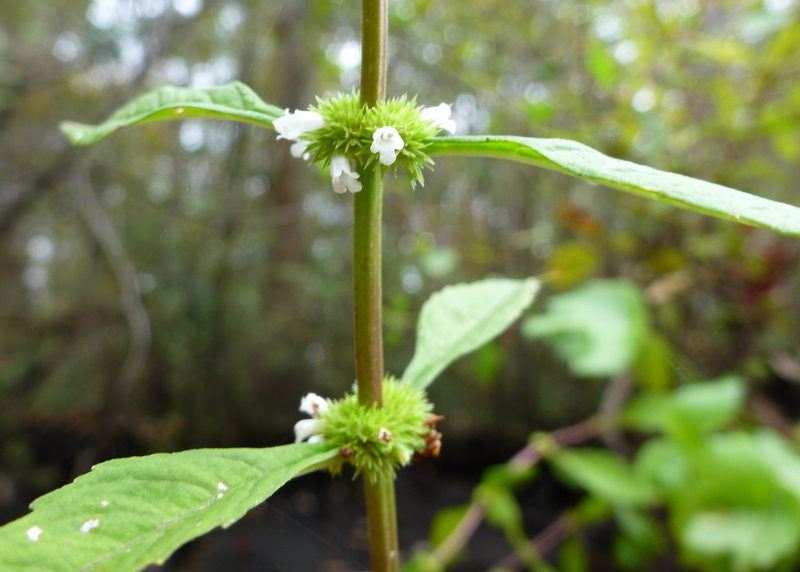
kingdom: Plantae
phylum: Tracheophyta
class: Magnoliopsida
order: Lamiales
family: Lamiaceae
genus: Lycopus
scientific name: Lycopus rubellus
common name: Stalked bugleweed
